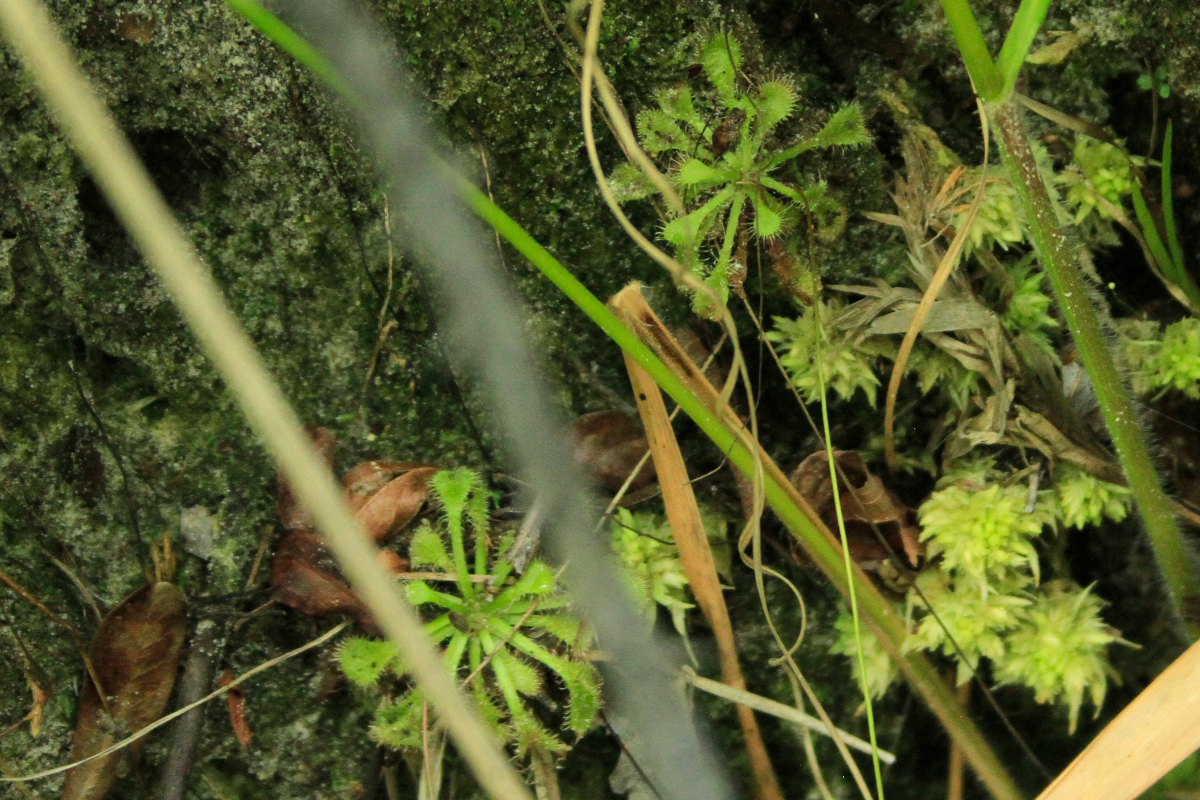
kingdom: Plantae
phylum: Tracheophyta
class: Magnoliopsida
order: Caryophyllales
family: Droseraceae
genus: Drosera
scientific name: Drosera capillaris
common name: Pink sundew
